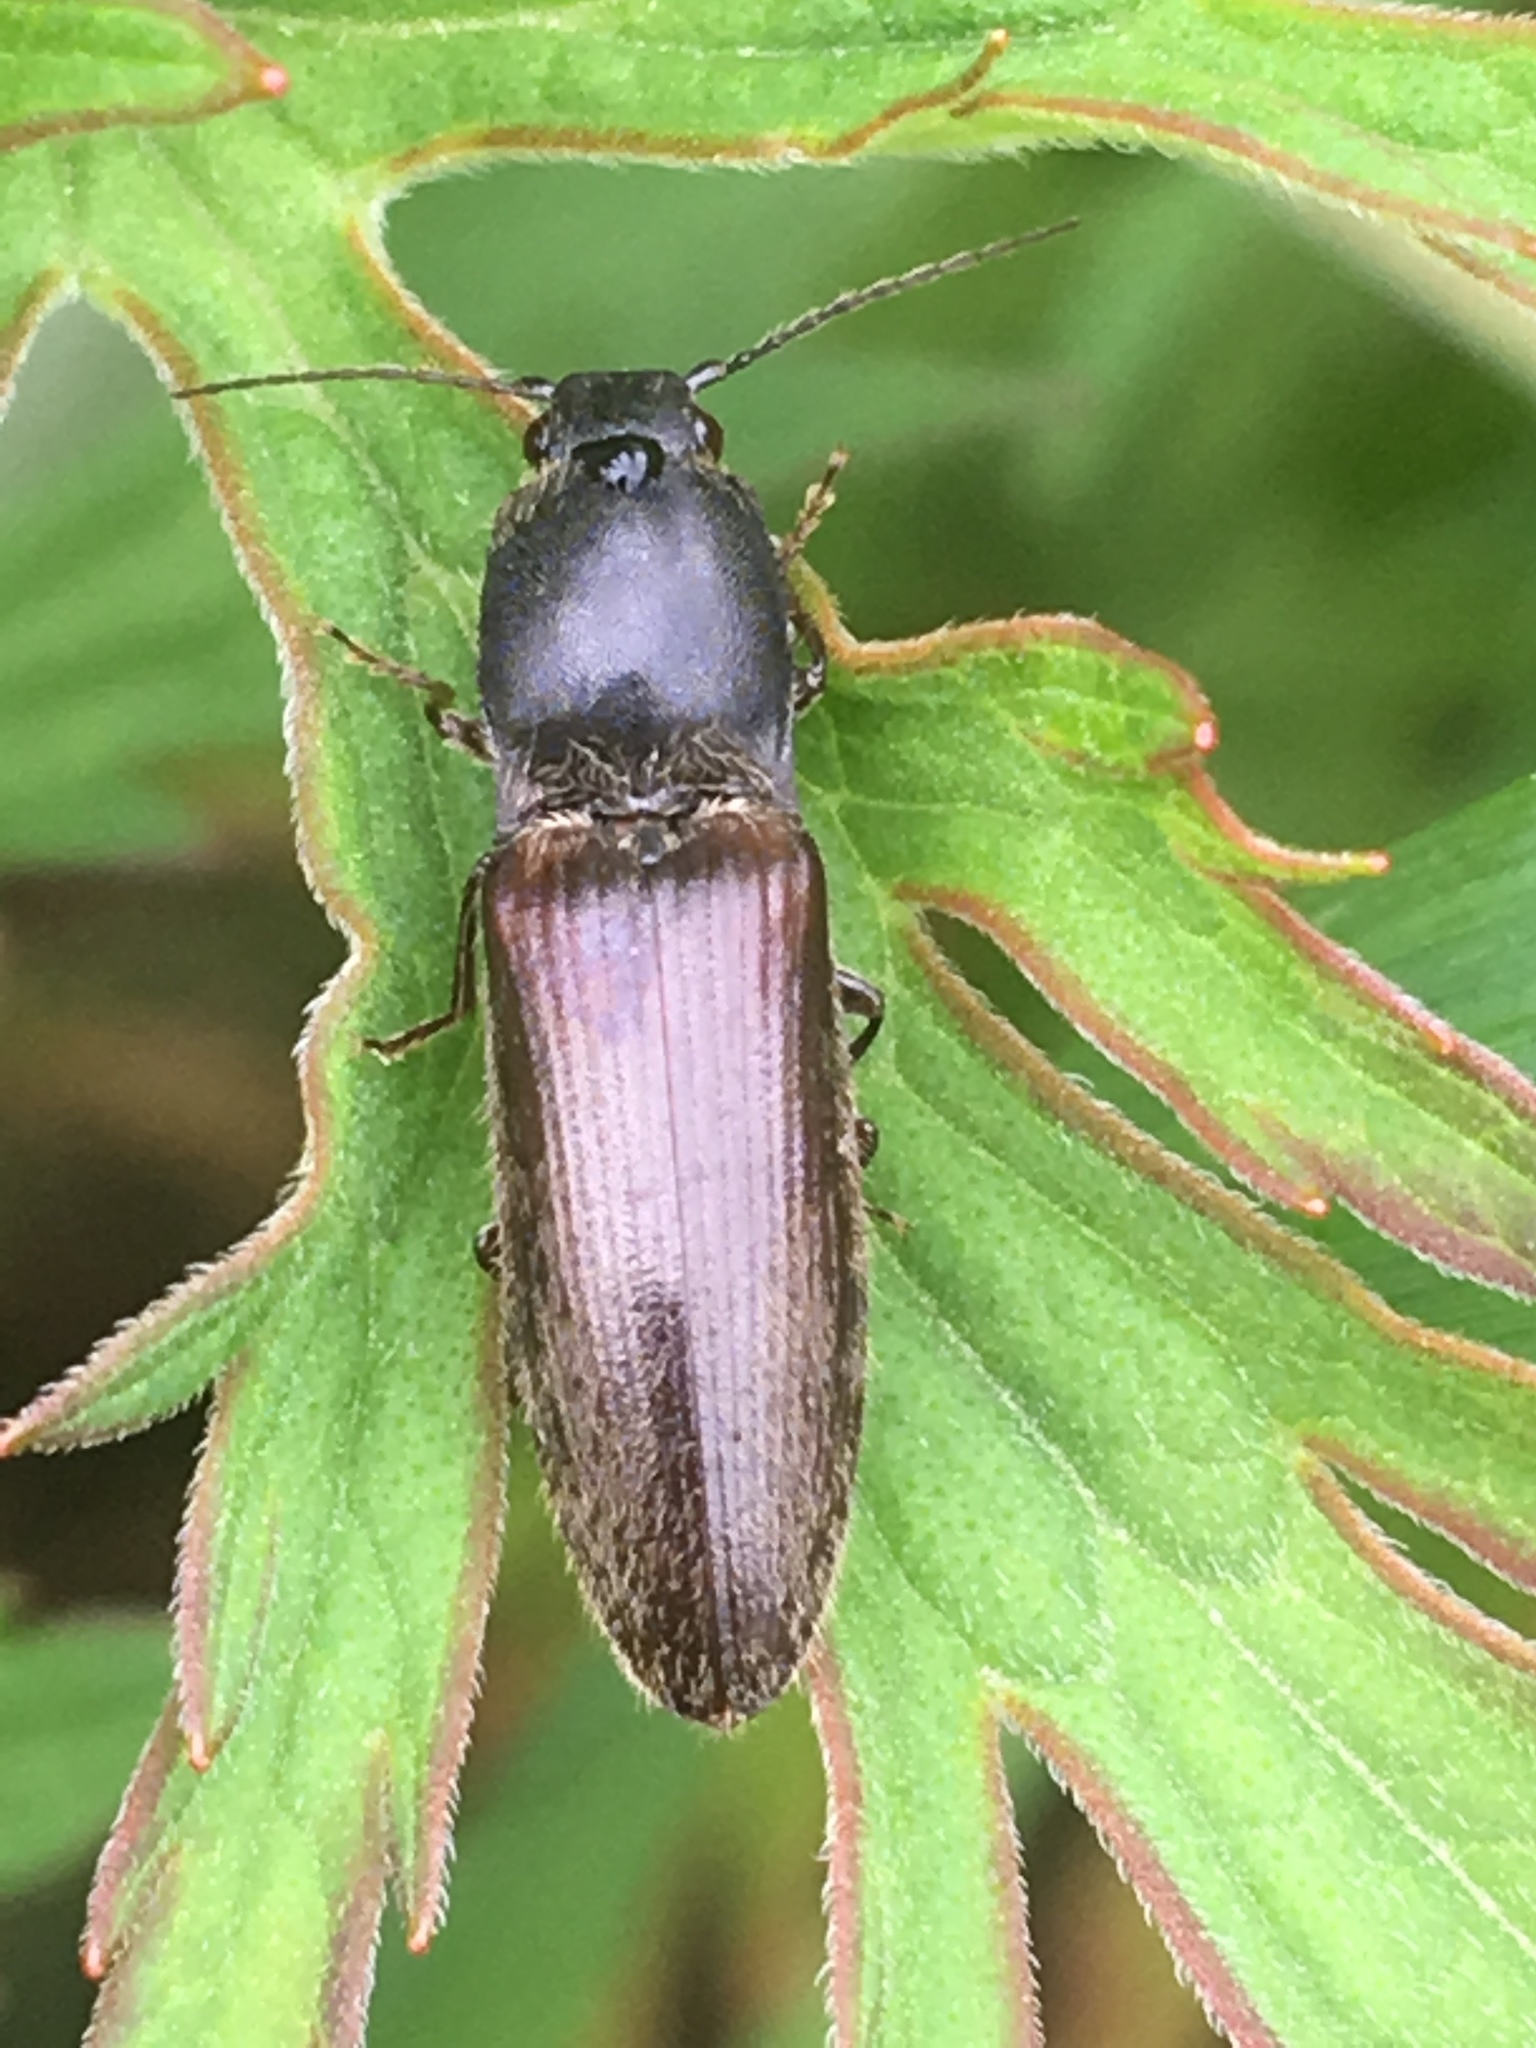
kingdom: Animalia
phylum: Arthropoda
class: Insecta
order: Coleoptera
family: Elateridae
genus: Athous
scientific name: Athous haemorrhoidalis
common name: Red-brown click beetle
